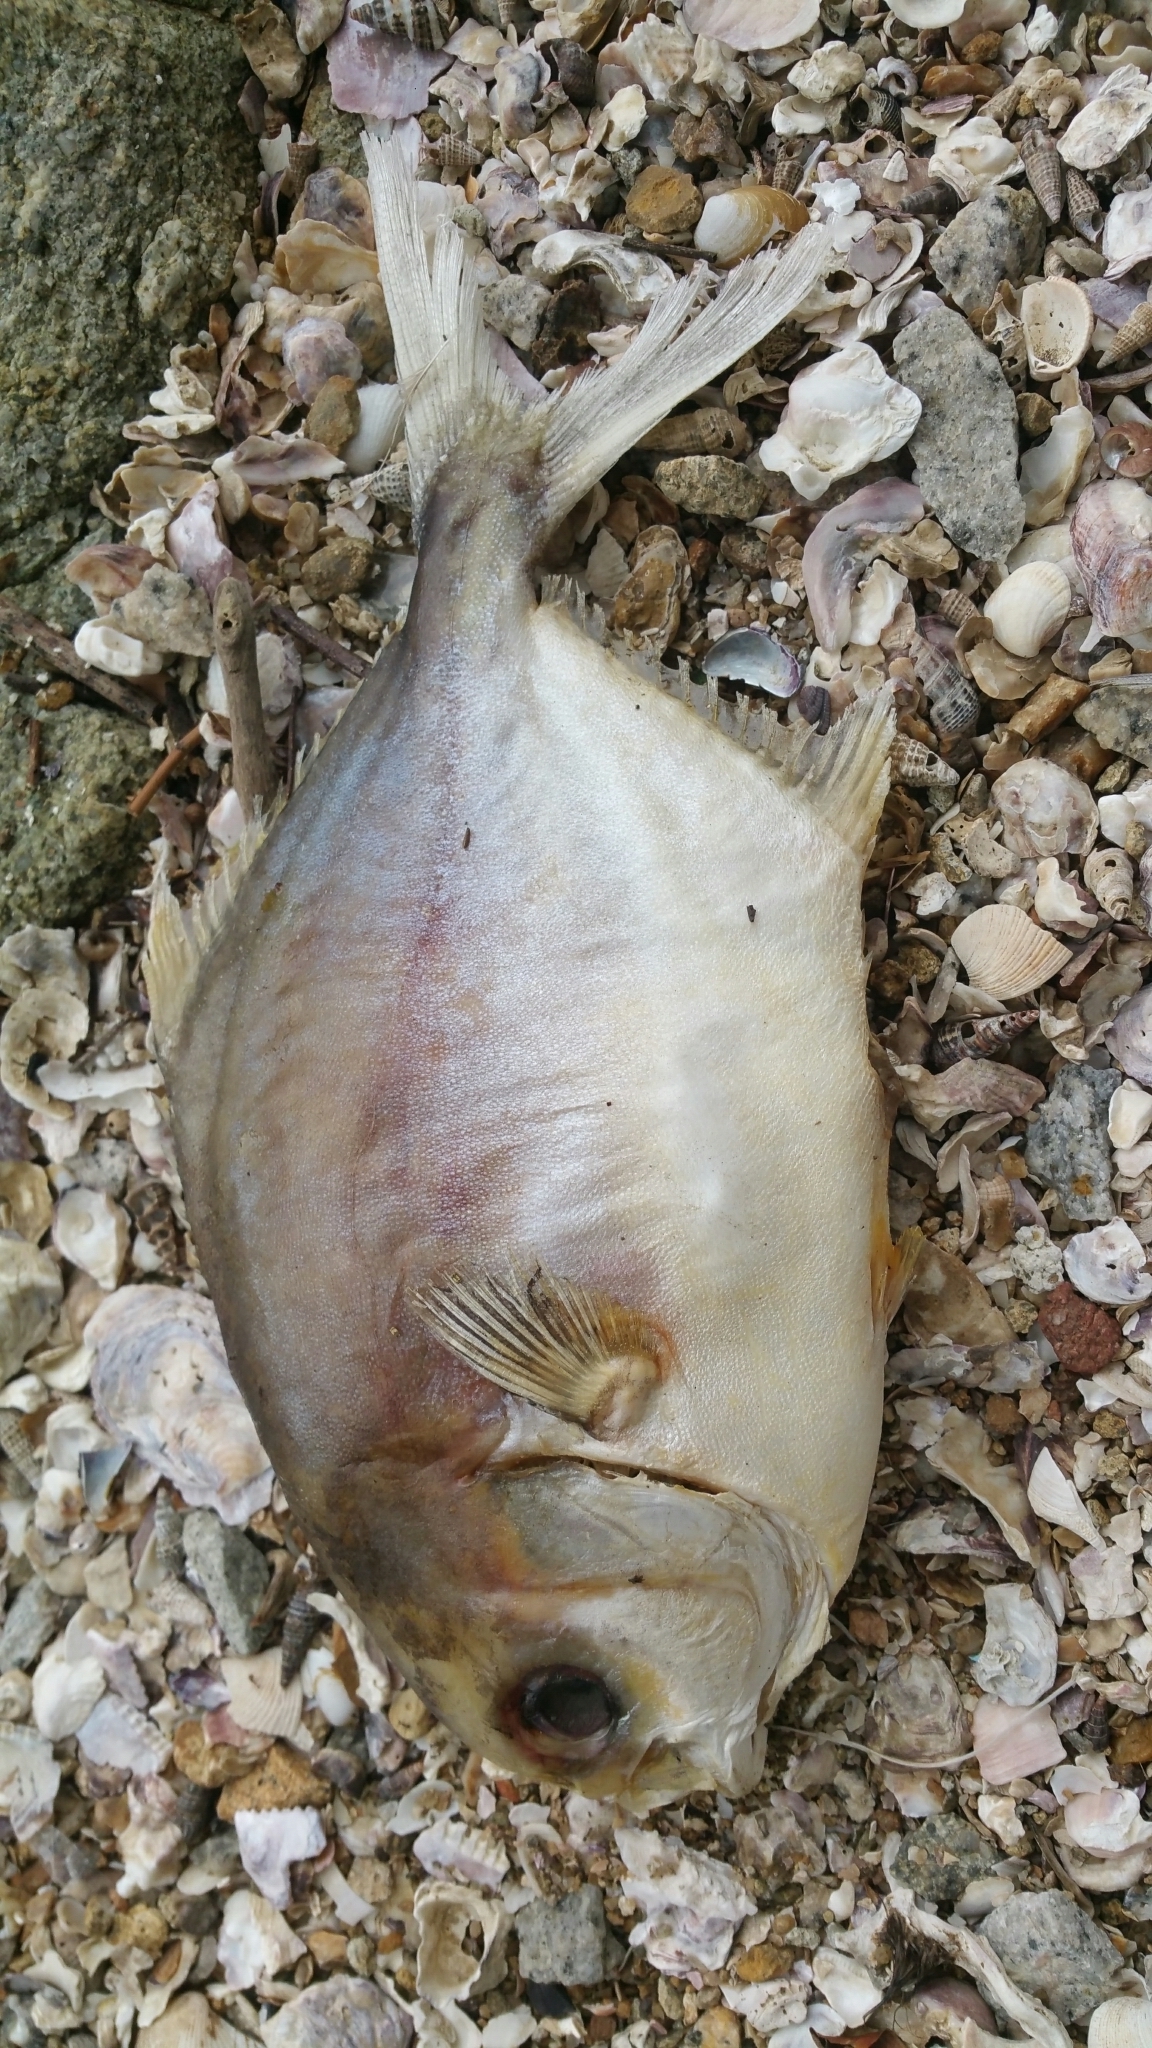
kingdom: Animalia
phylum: Chordata
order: Perciformes
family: Carangidae
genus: Trachinotus
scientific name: Trachinotus blochii
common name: Snubnose pompano
